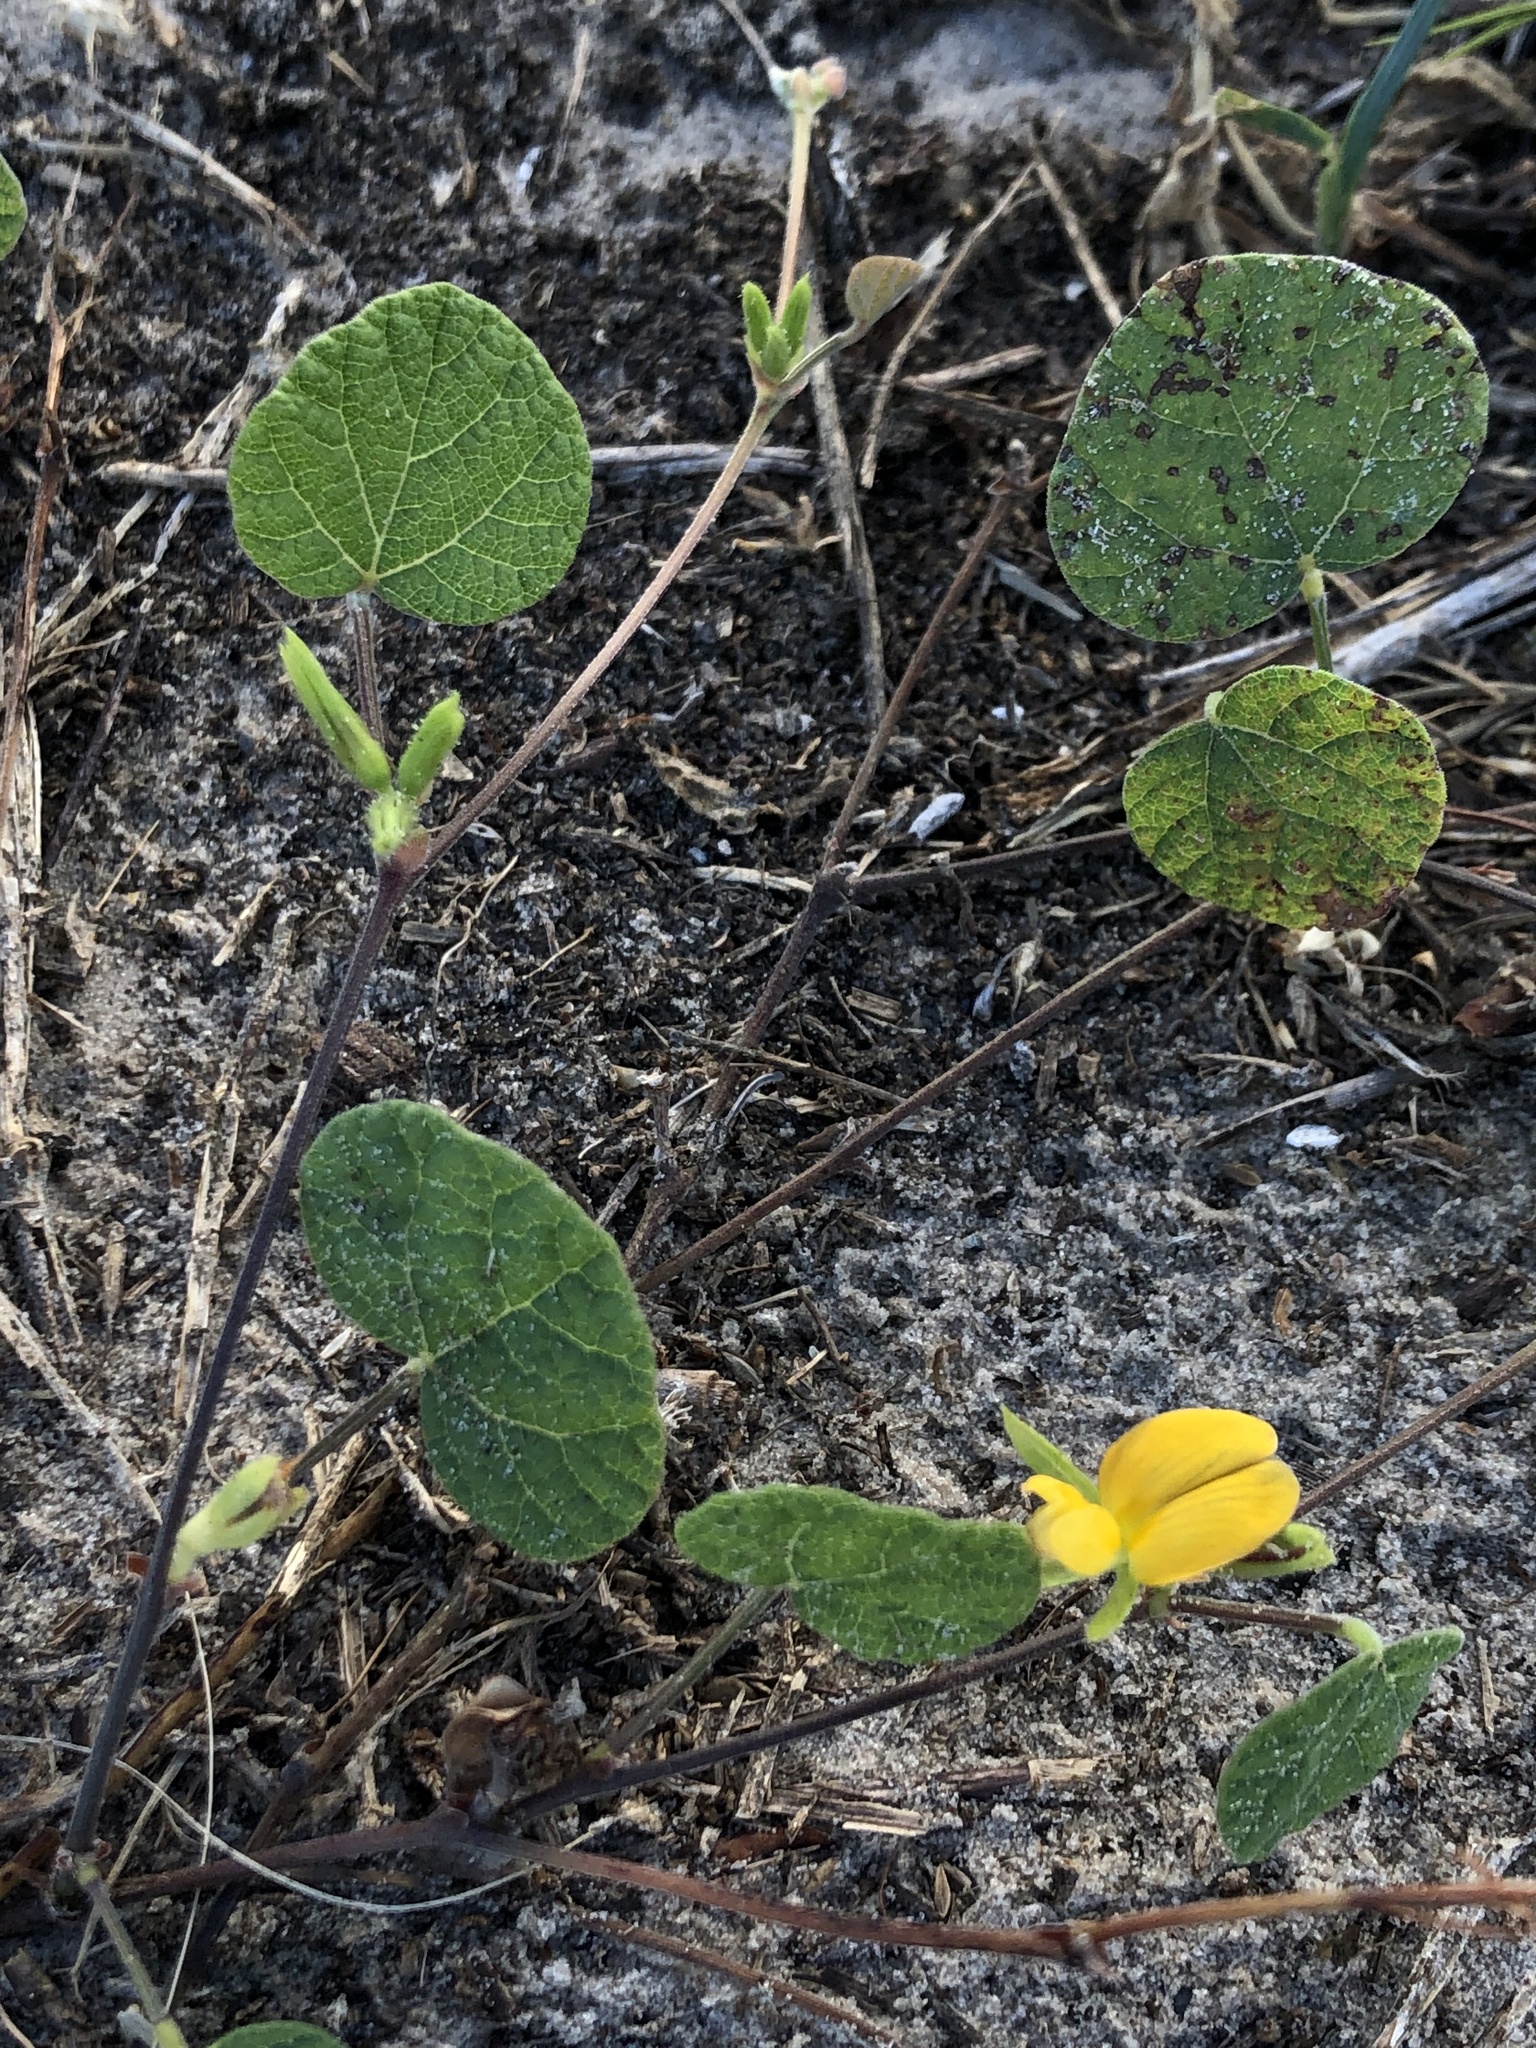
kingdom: Plantae
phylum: Tracheophyta
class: Magnoliopsida
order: Fabales
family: Fabaceae
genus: Rhynchosia
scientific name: Rhynchosia americana
